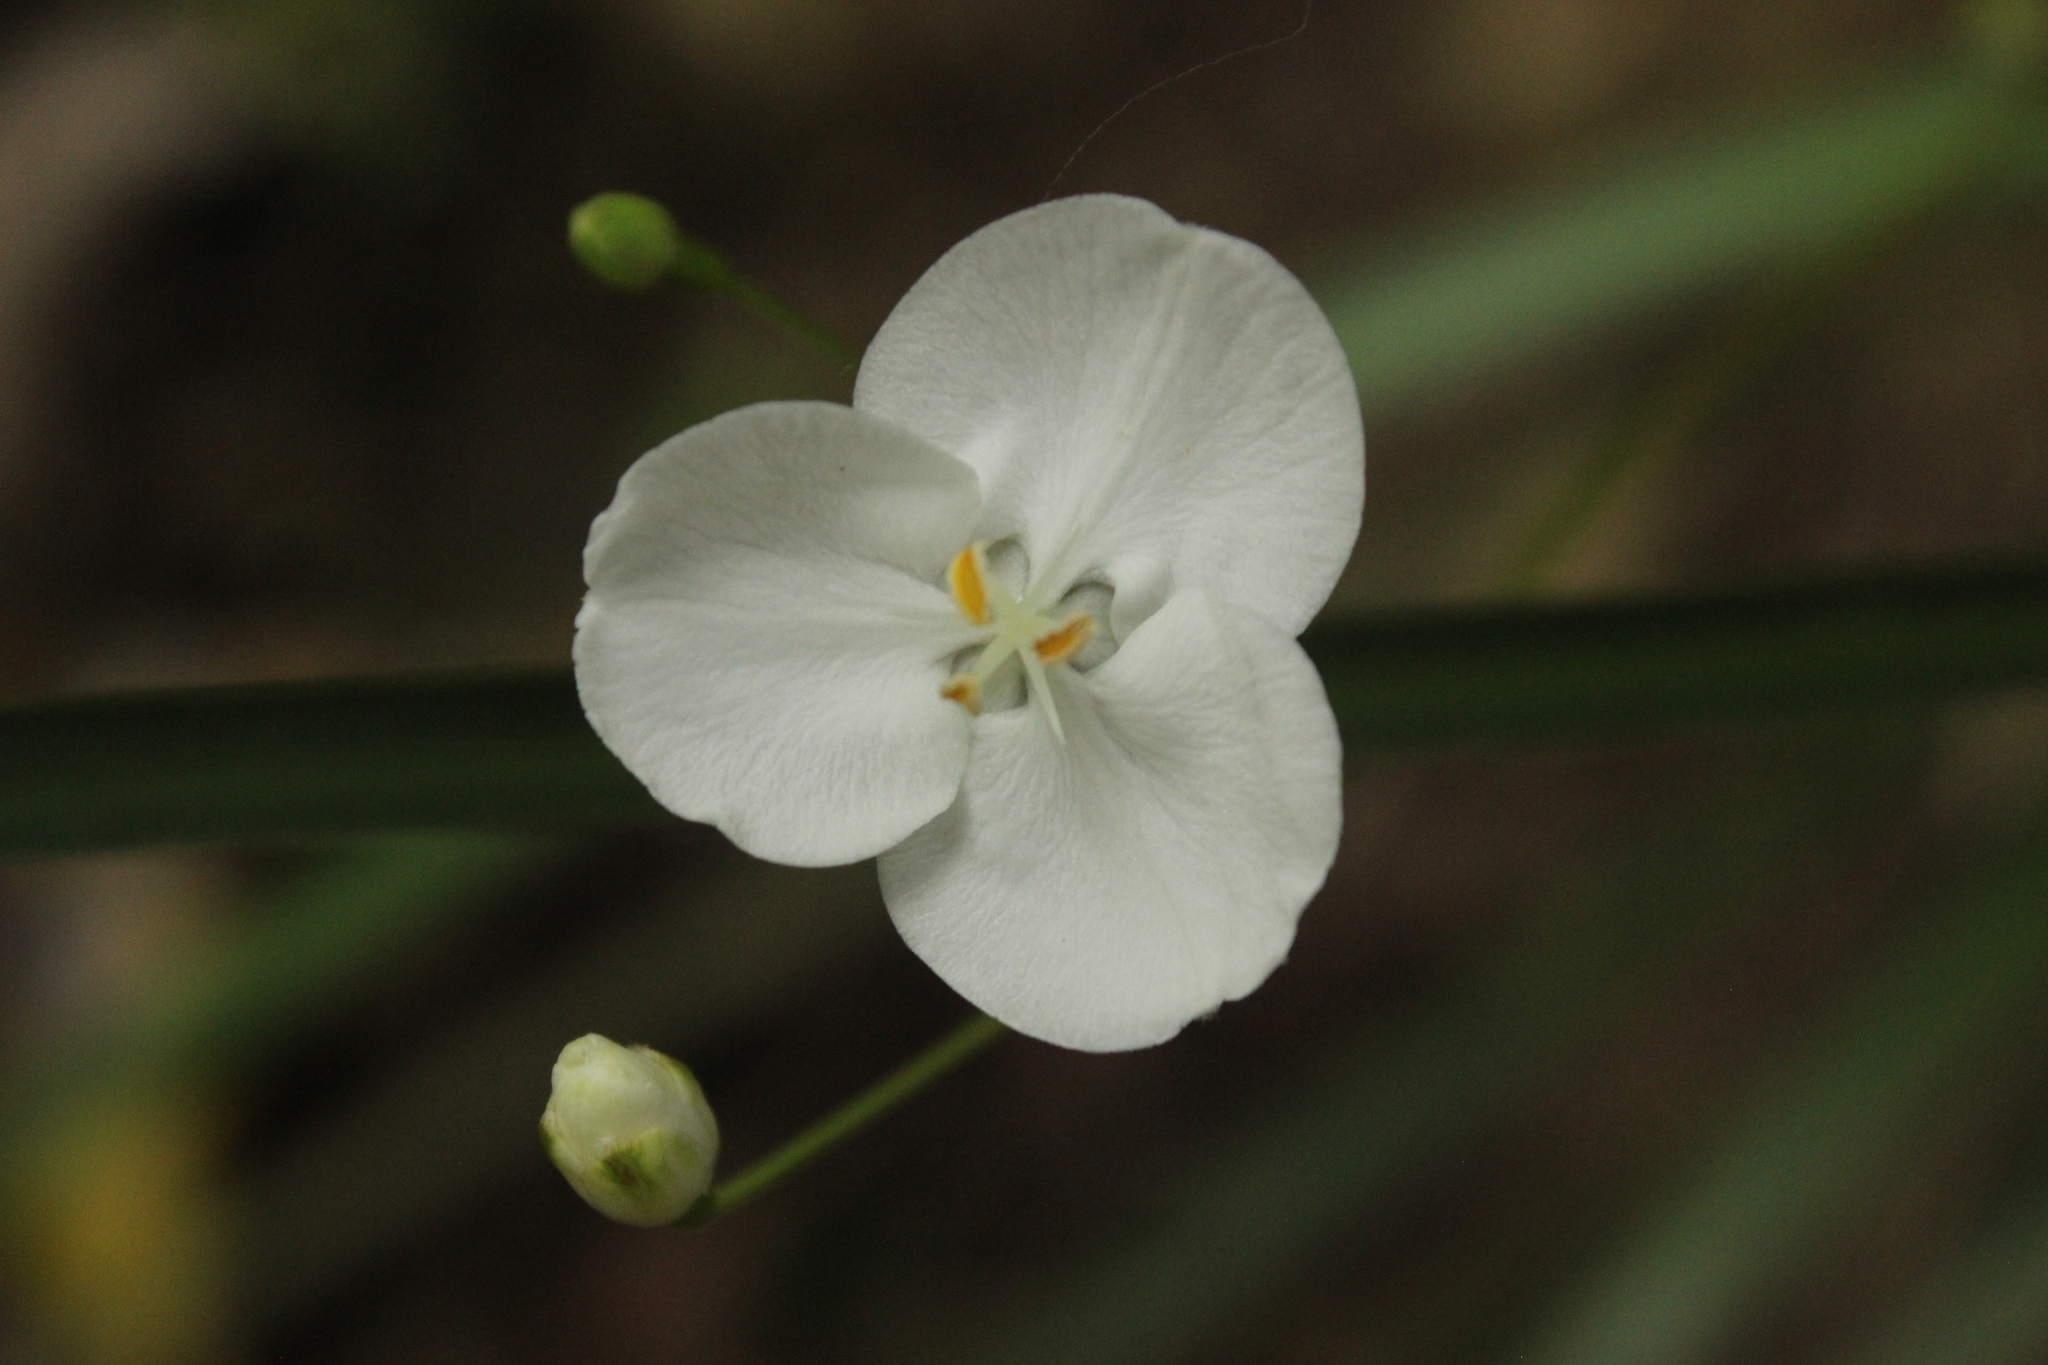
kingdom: Plantae
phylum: Tracheophyta
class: Liliopsida
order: Asparagales
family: Iridaceae
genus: Libertia
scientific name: Libertia ixioides
